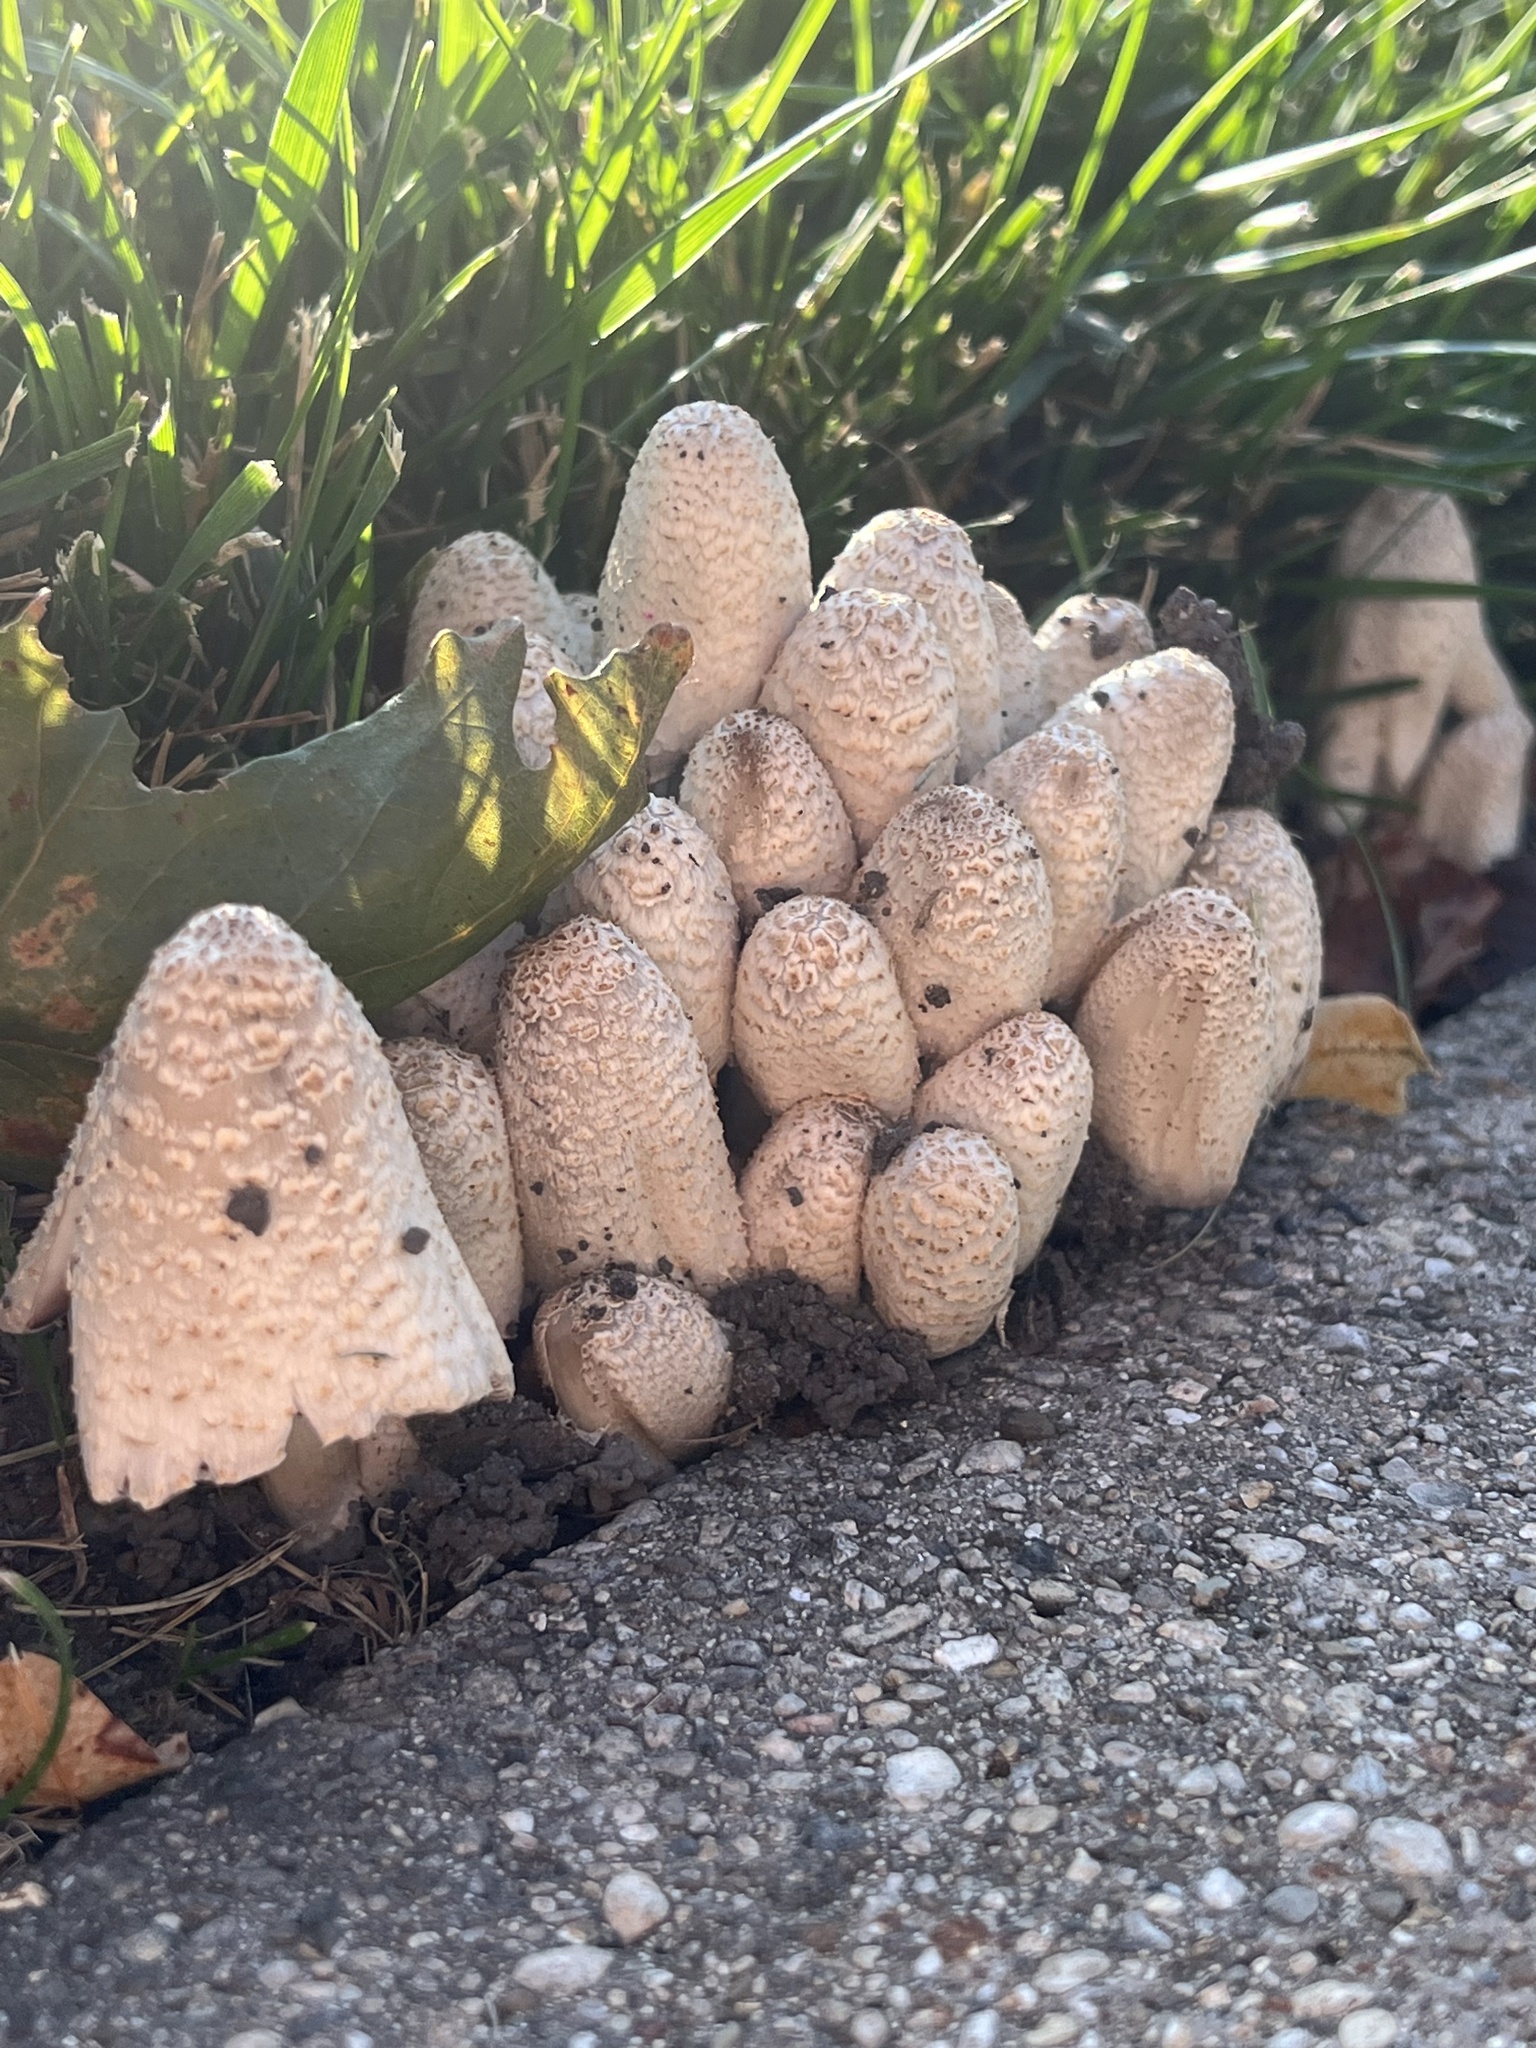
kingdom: Fungi
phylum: Basidiomycota
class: Agaricomycetes
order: Agaricales
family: Psathyrellaceae
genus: Coprinopsis
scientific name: Coprinopsis variegata
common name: Scaly ink cap
